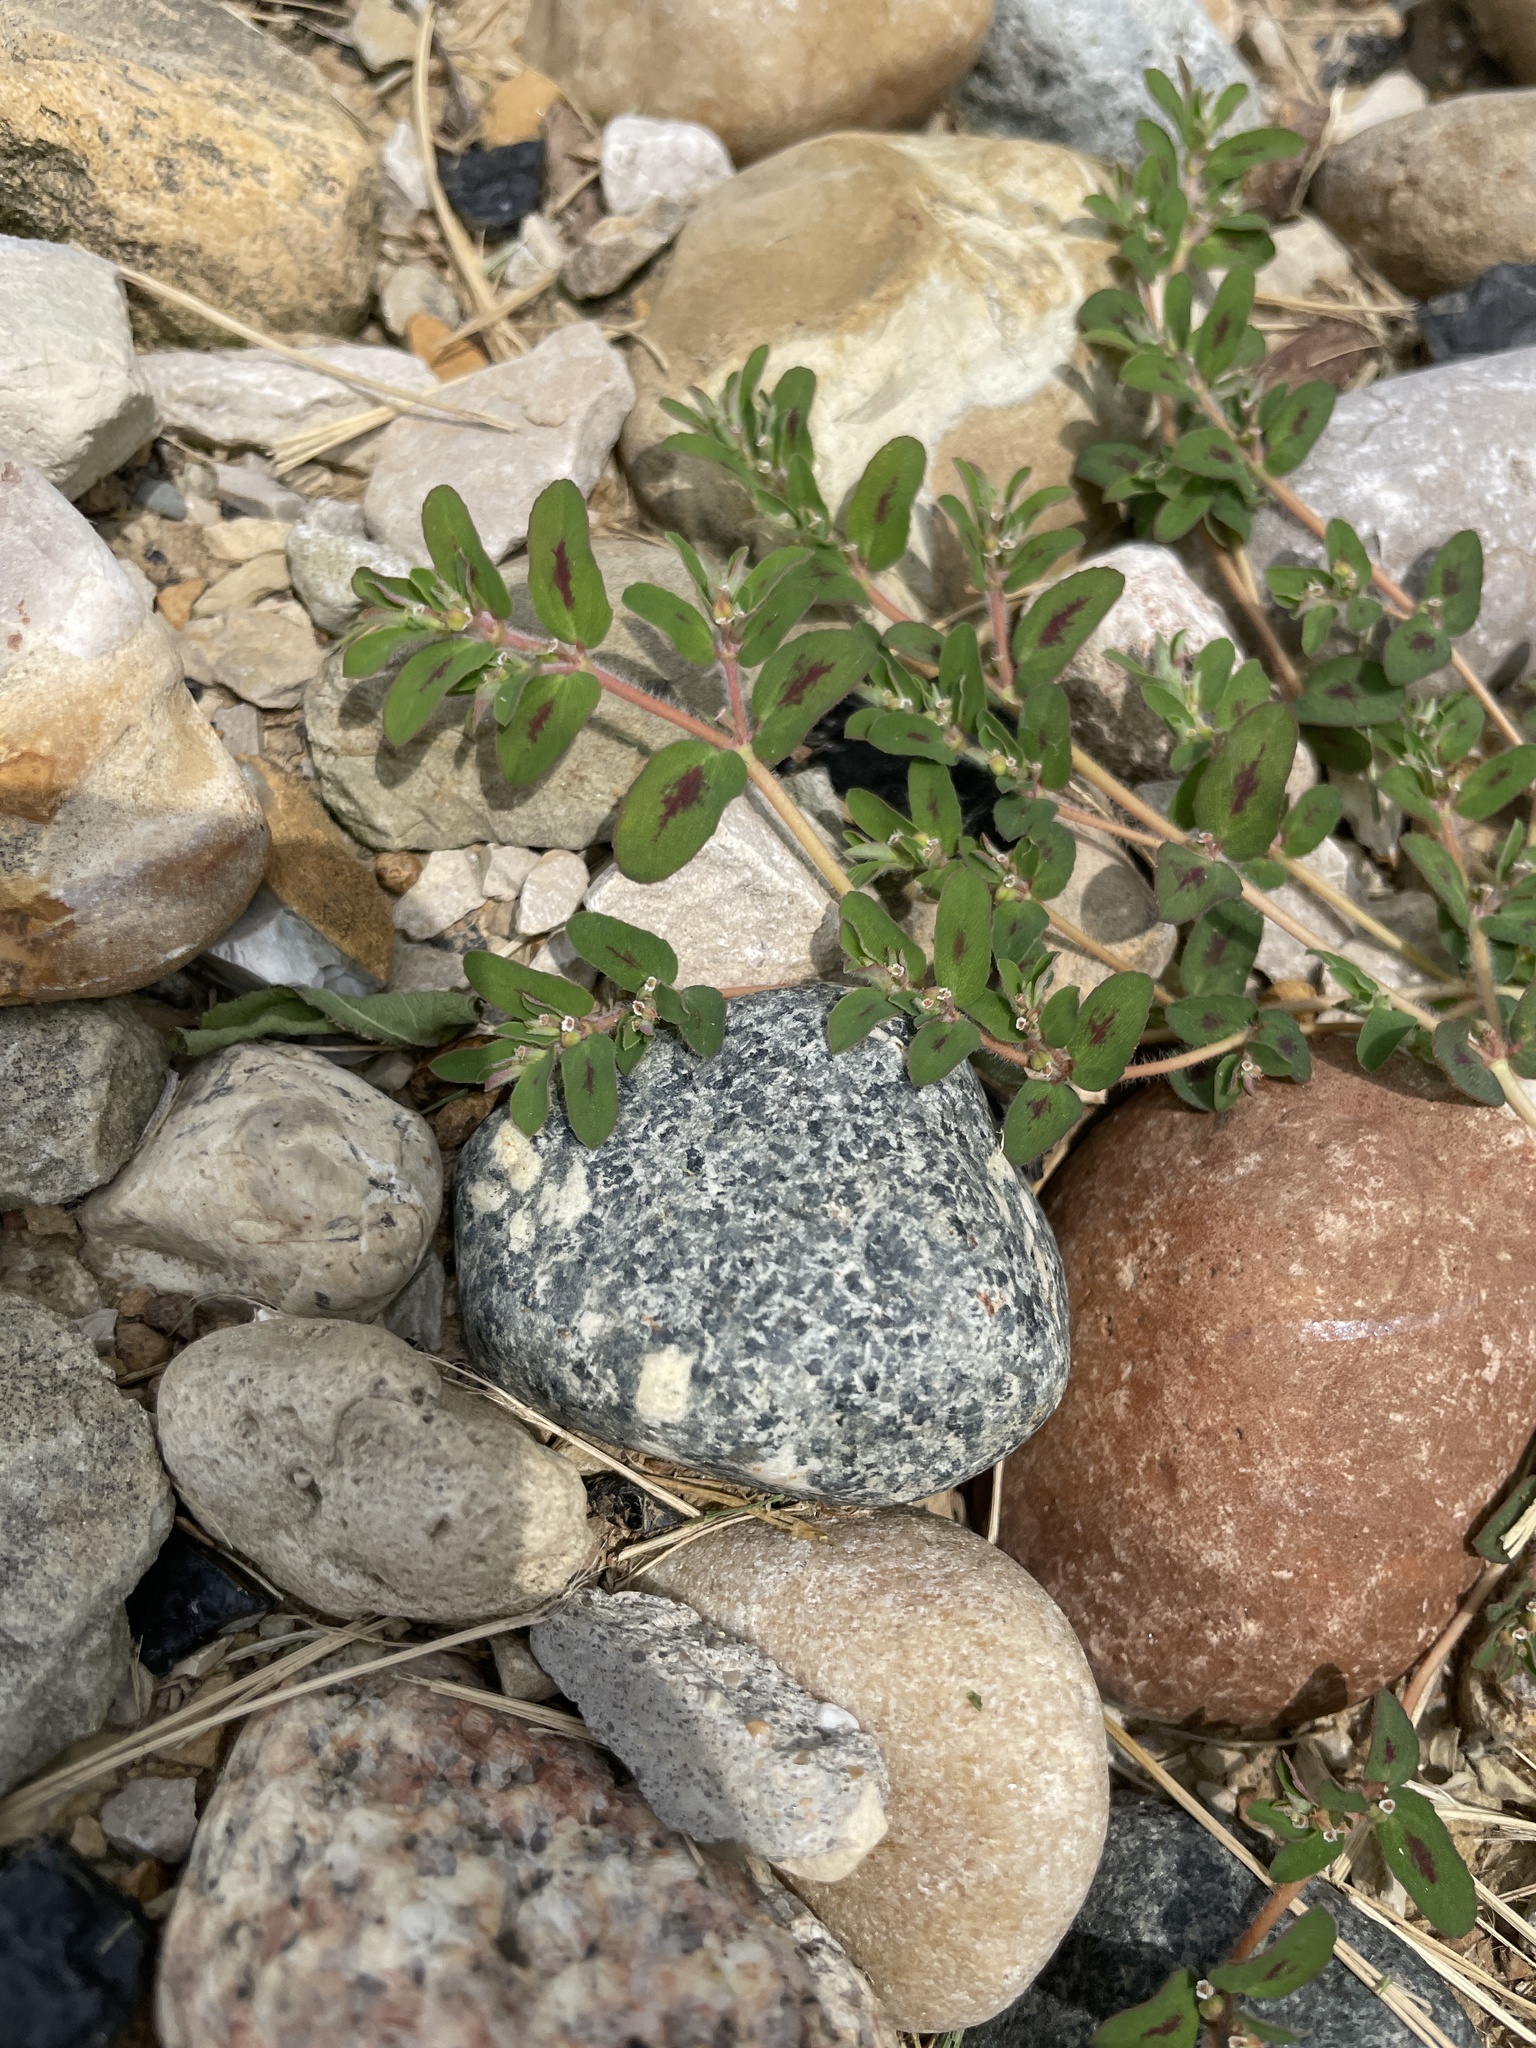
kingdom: Plantae
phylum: Tracheophyta
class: Magnoliopsida
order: Malpighiales
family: Euphorbiaceae
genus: Euphorbia
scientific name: Euphorbia maculata
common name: Spotted spurge
